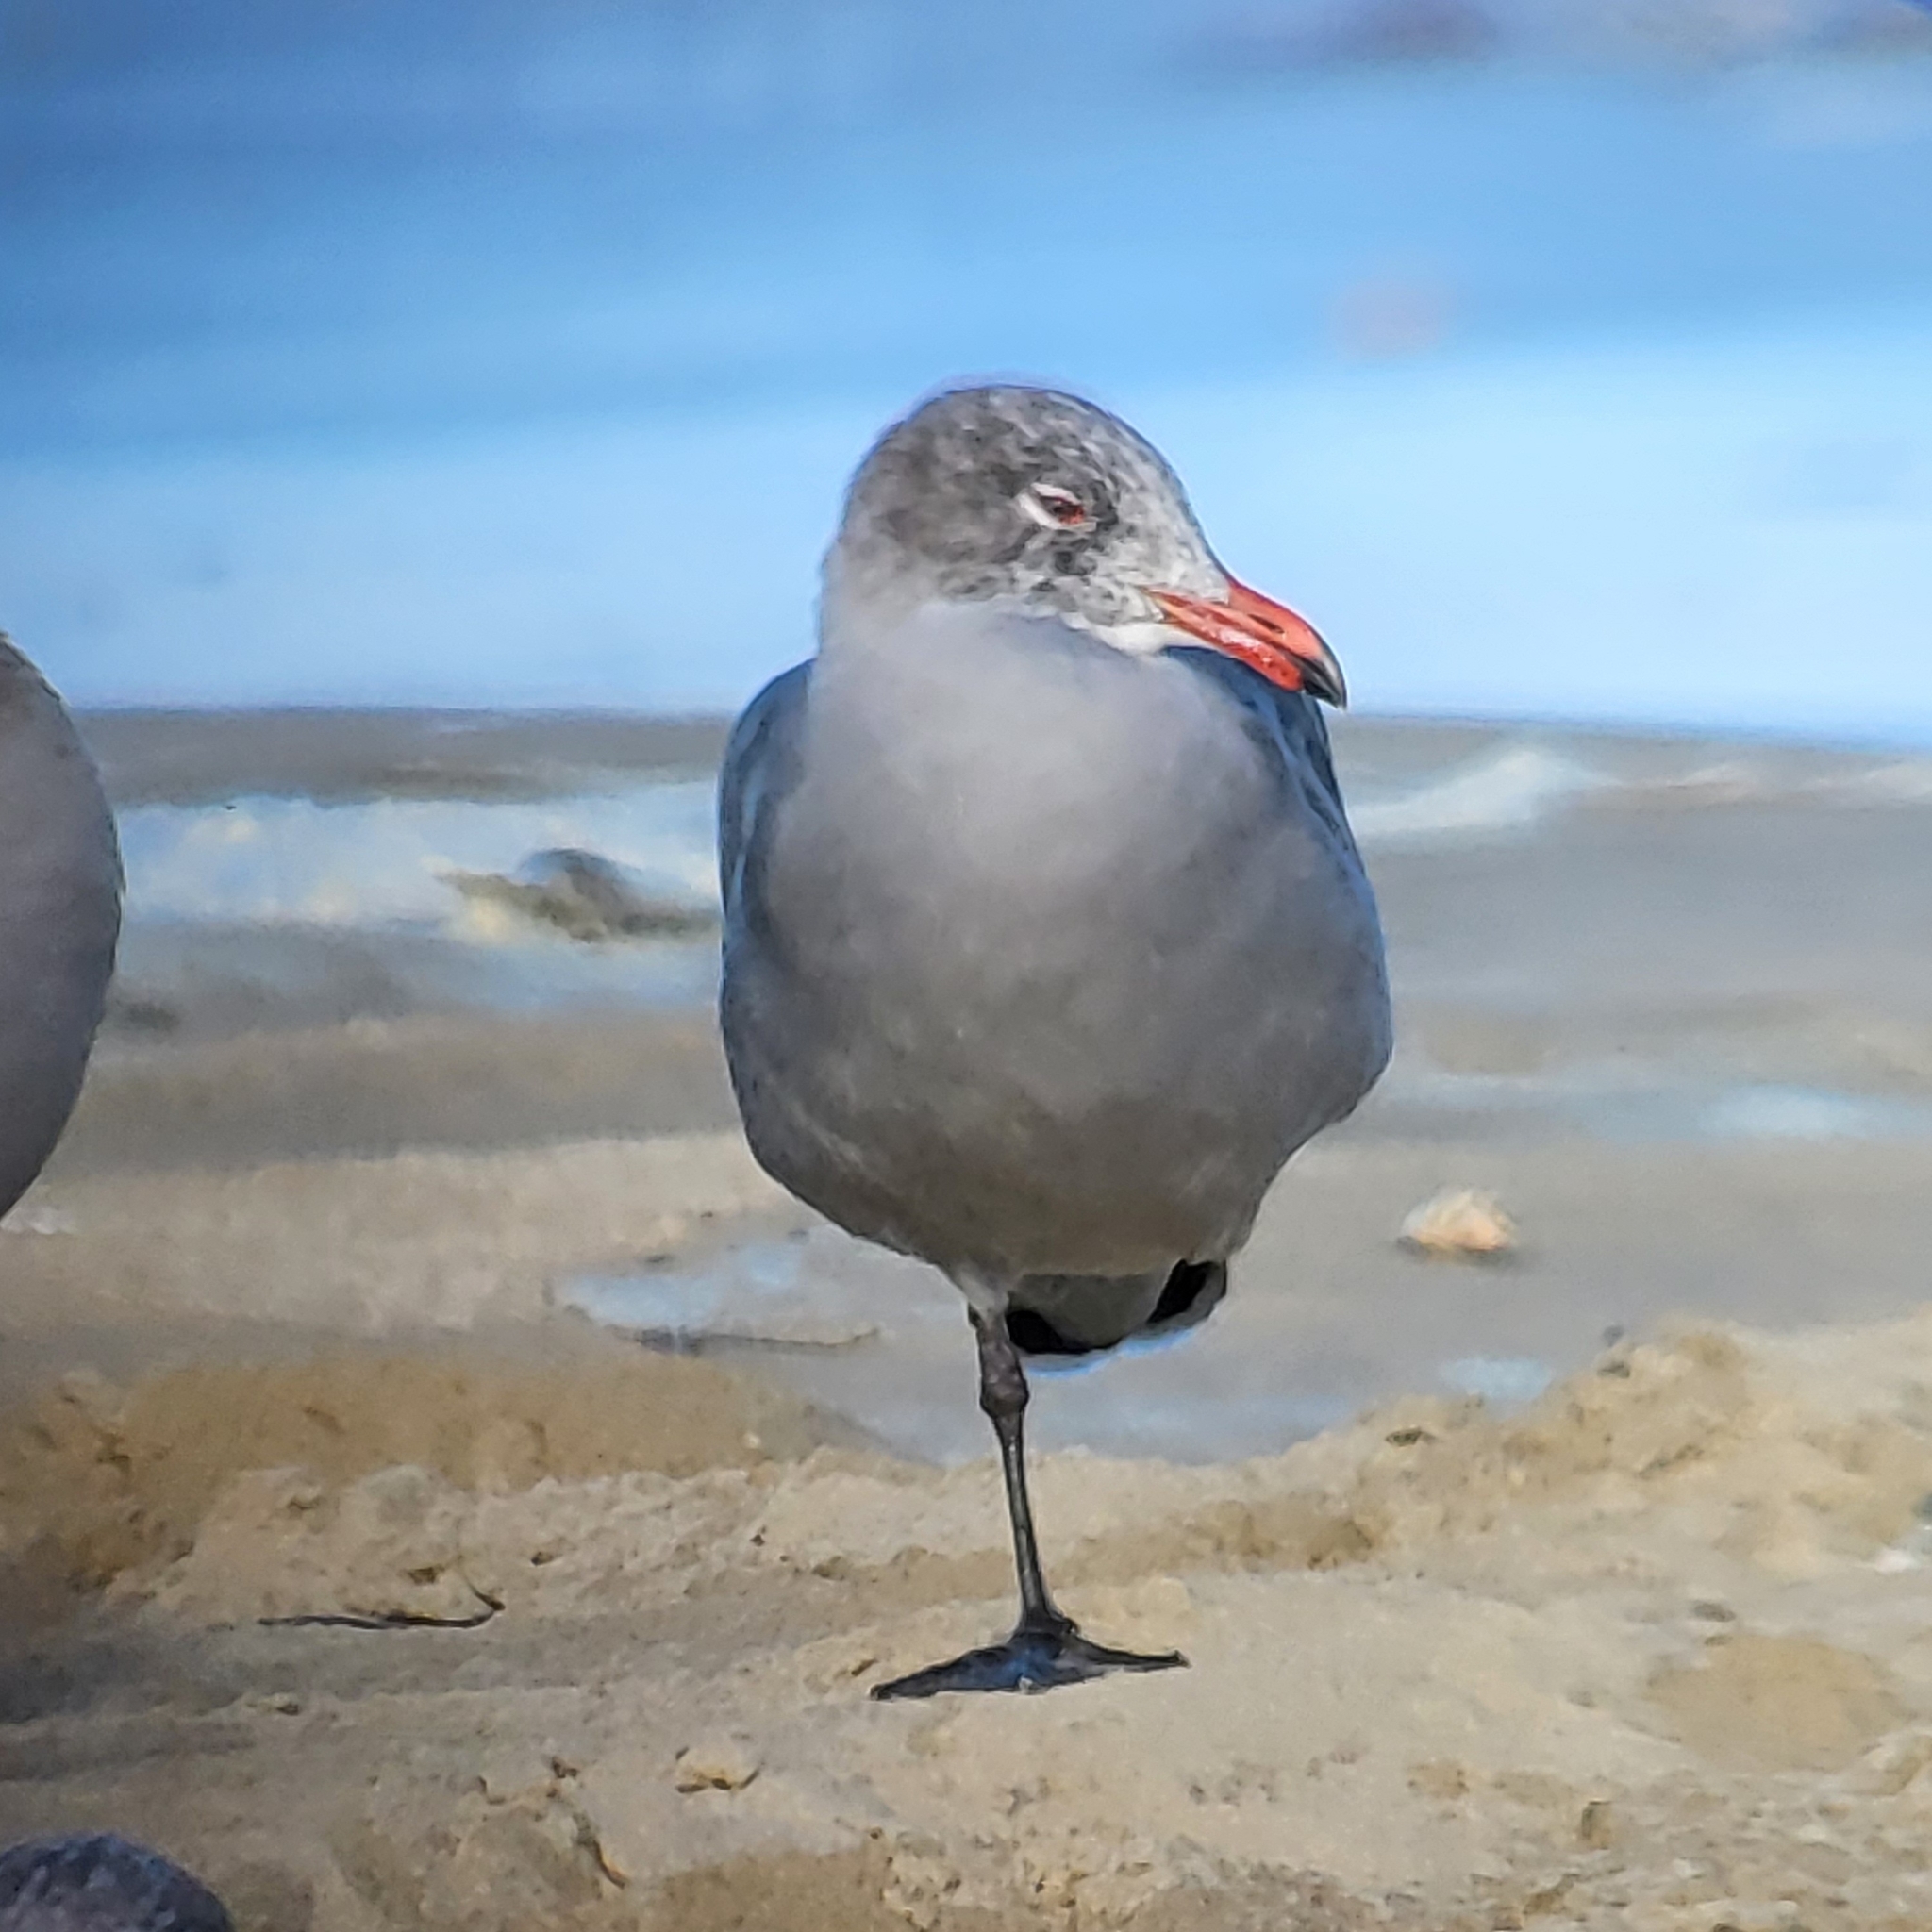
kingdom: Animalia
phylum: Chordata
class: Aves
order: Charadriiformes
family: Laridae
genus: Larus
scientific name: Larus heermanni
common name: Heermann's gull
